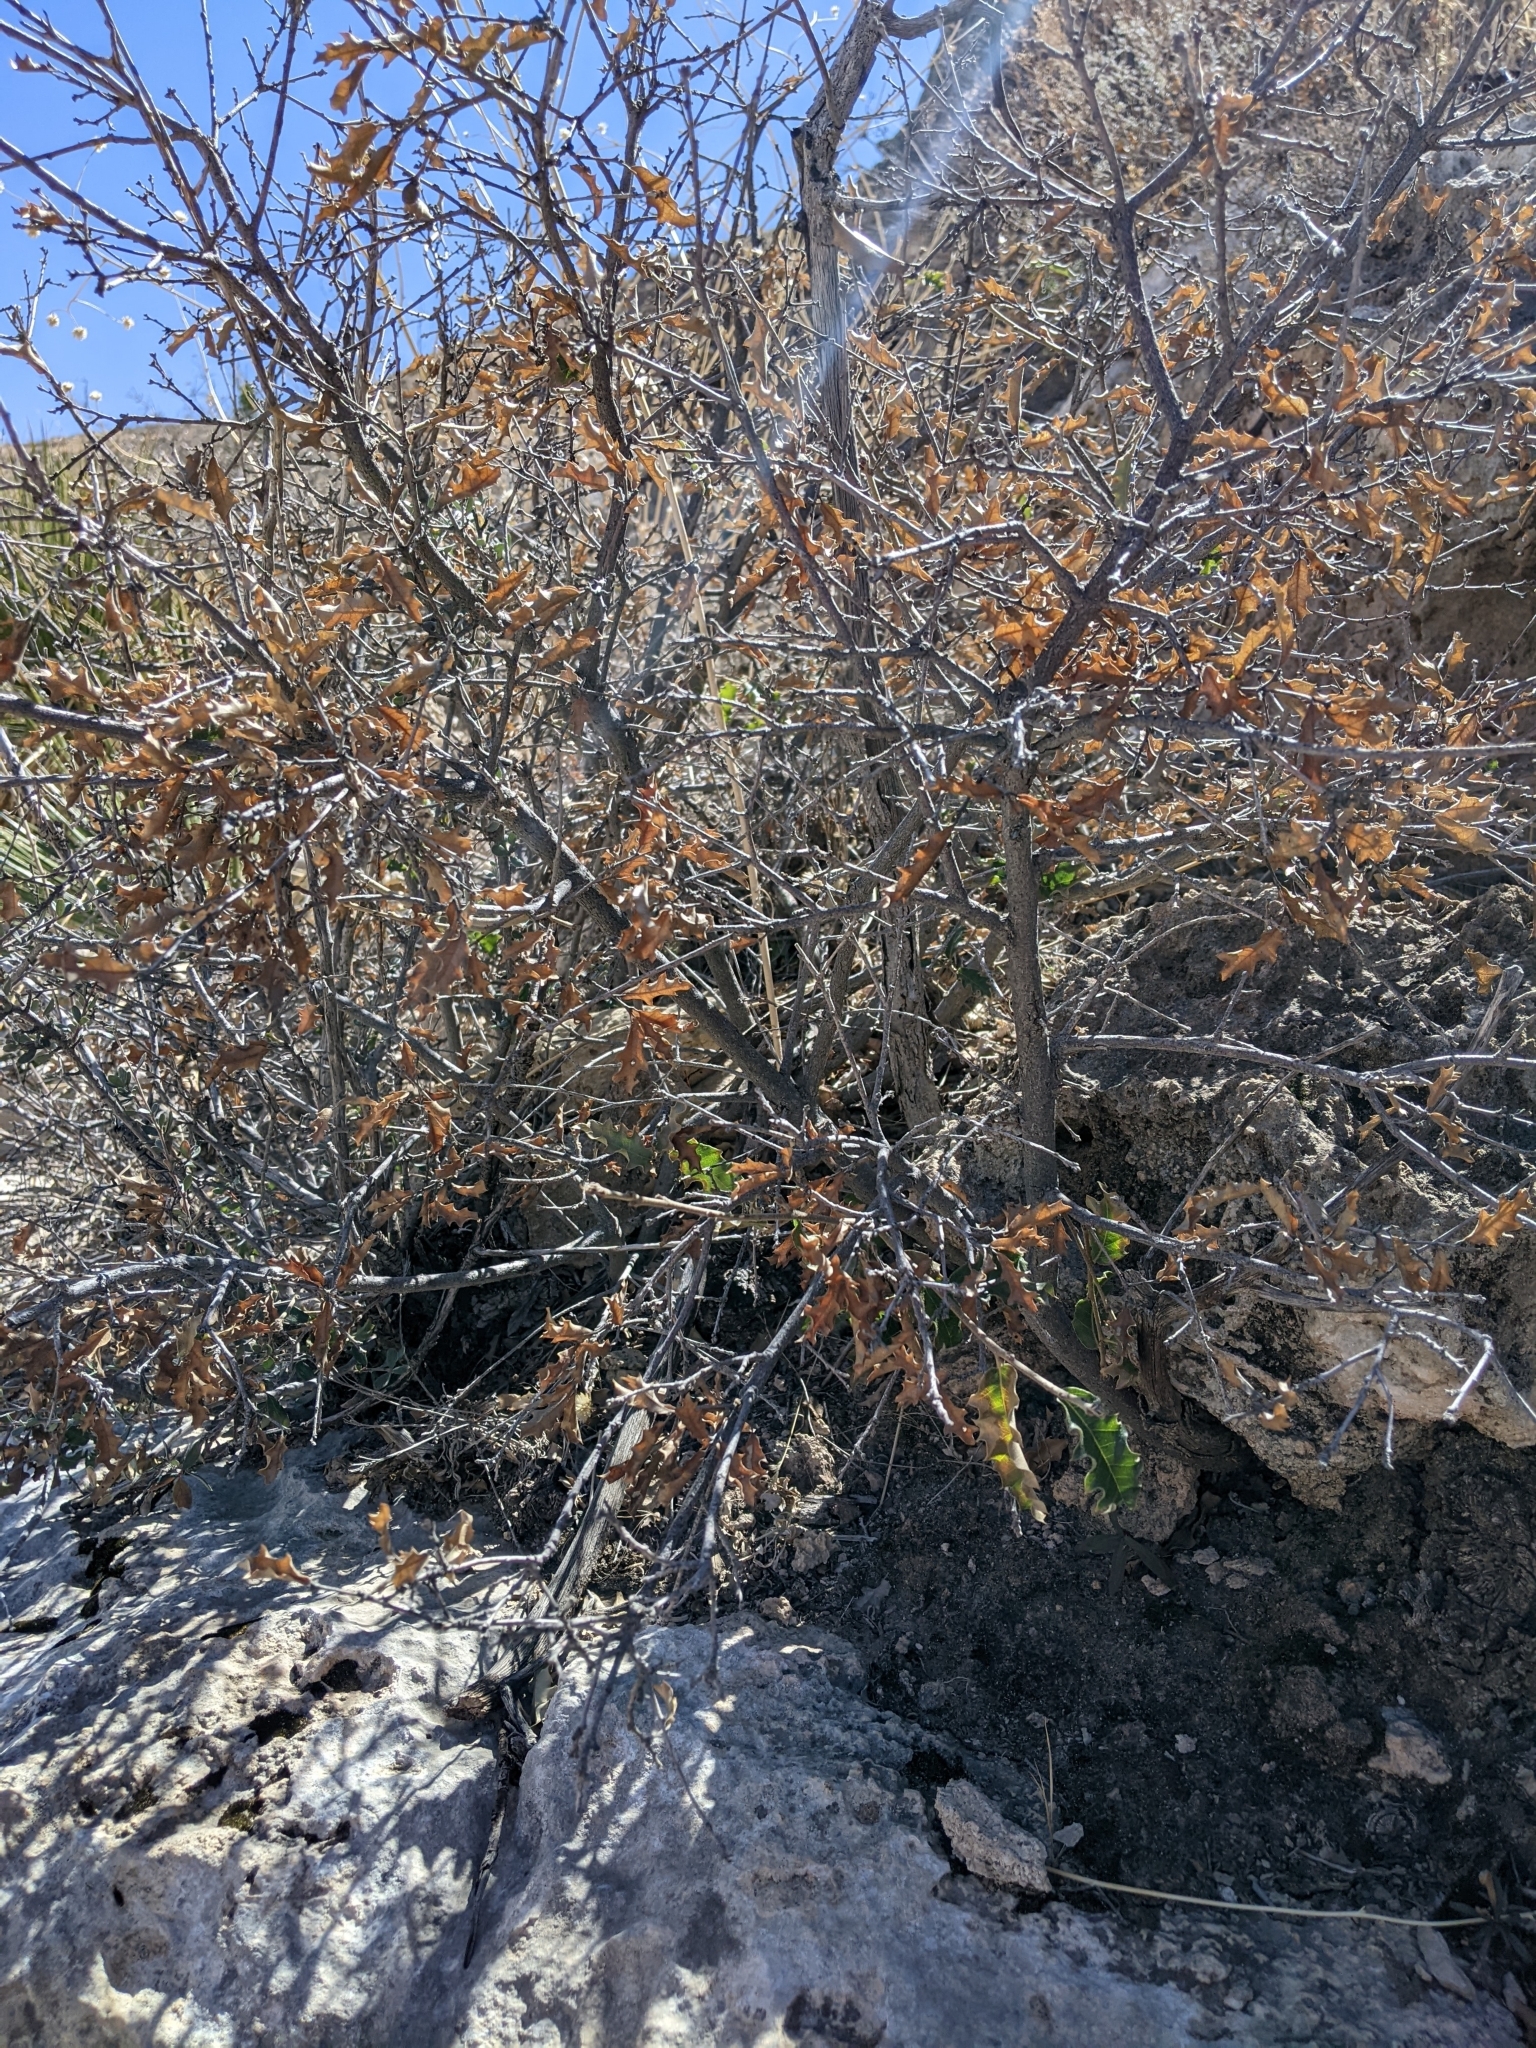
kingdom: Plantae
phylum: Tracheophyta
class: Magnoliopsida
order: Fagales
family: Fagaceae
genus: Quercus
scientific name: Quercus pungens
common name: Pungent oak
